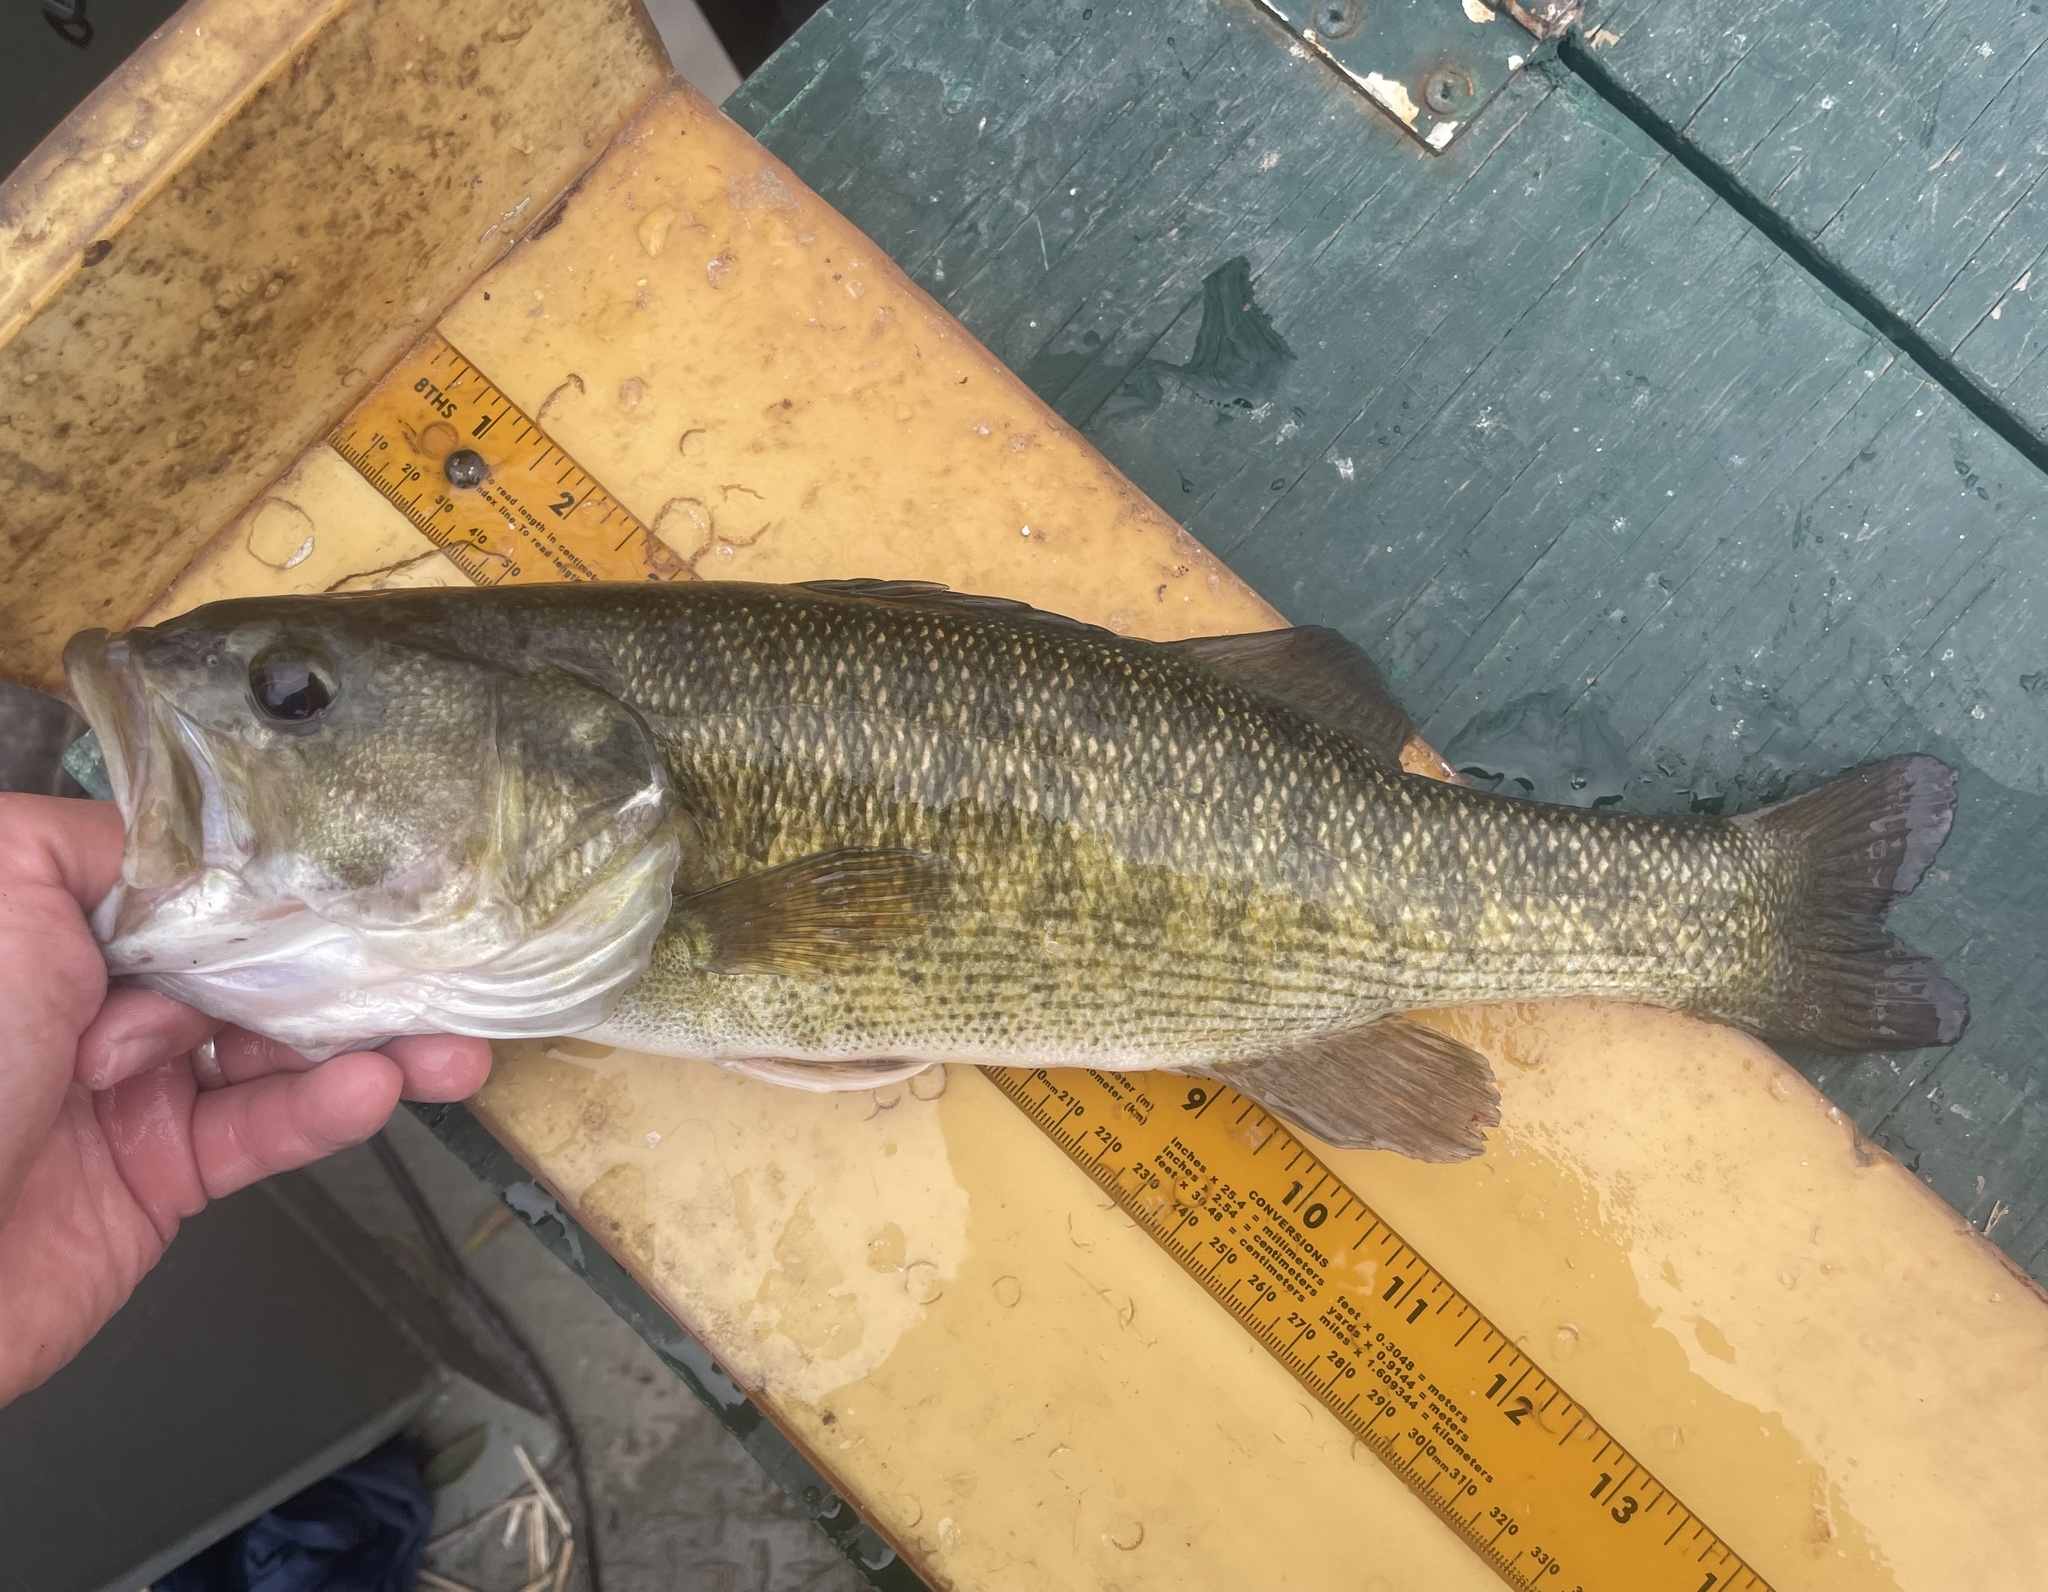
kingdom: Animalia
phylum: Chordata
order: Perciformes
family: Centrarchidae
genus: Micropterus
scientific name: Micropterus treculii
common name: Guadalupe bass
